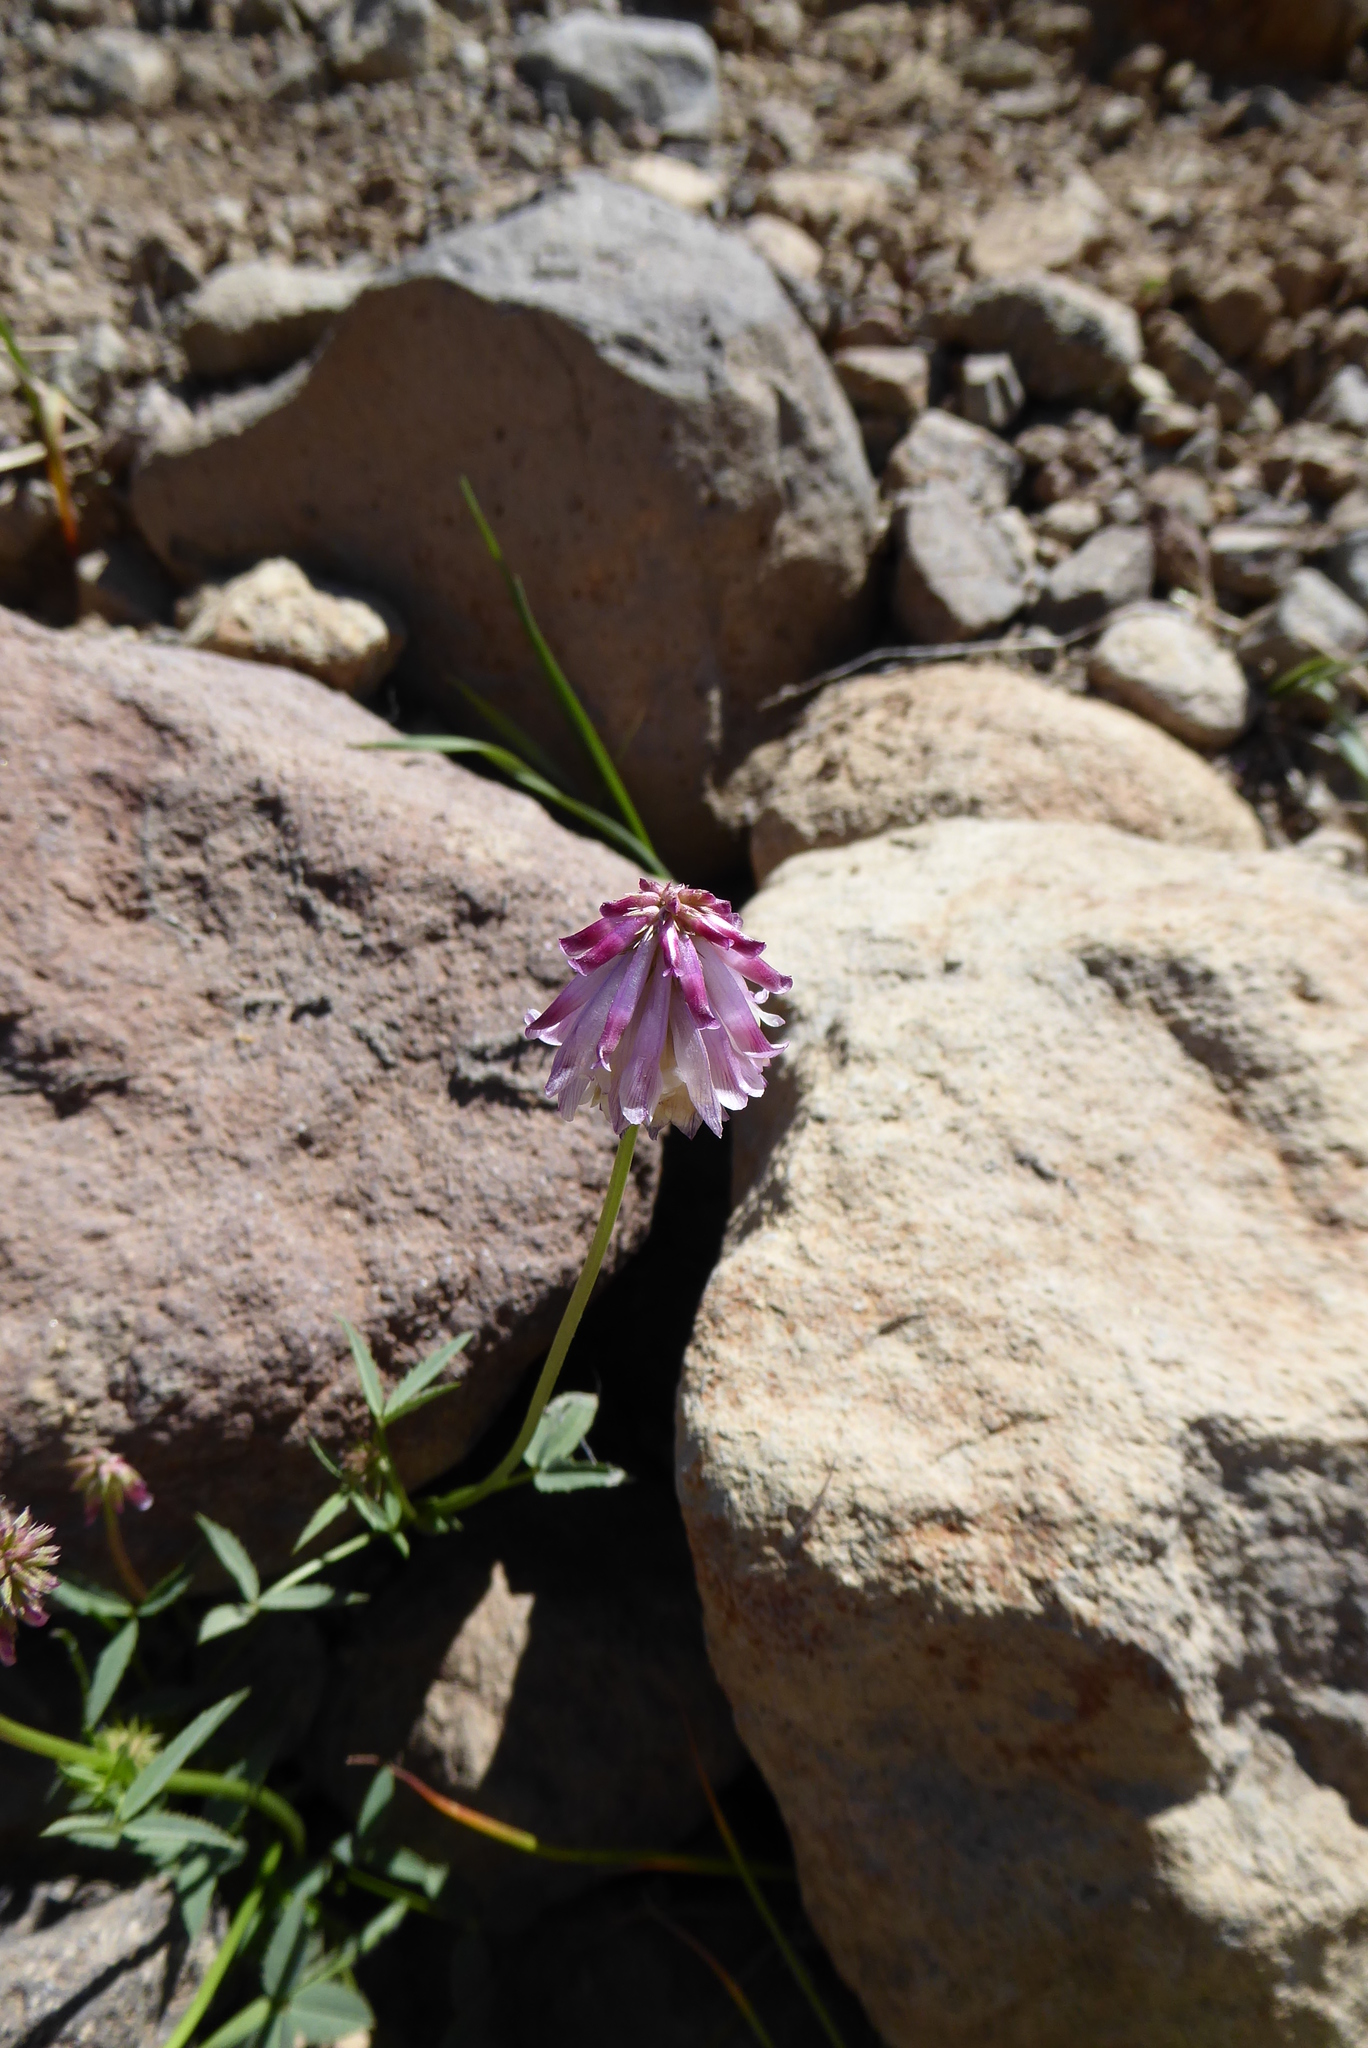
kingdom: Plantae
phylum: Tracheophyta
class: Magnoliopsida
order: Fabales
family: Fabaceae
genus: Trifolium
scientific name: Trifolium productum
